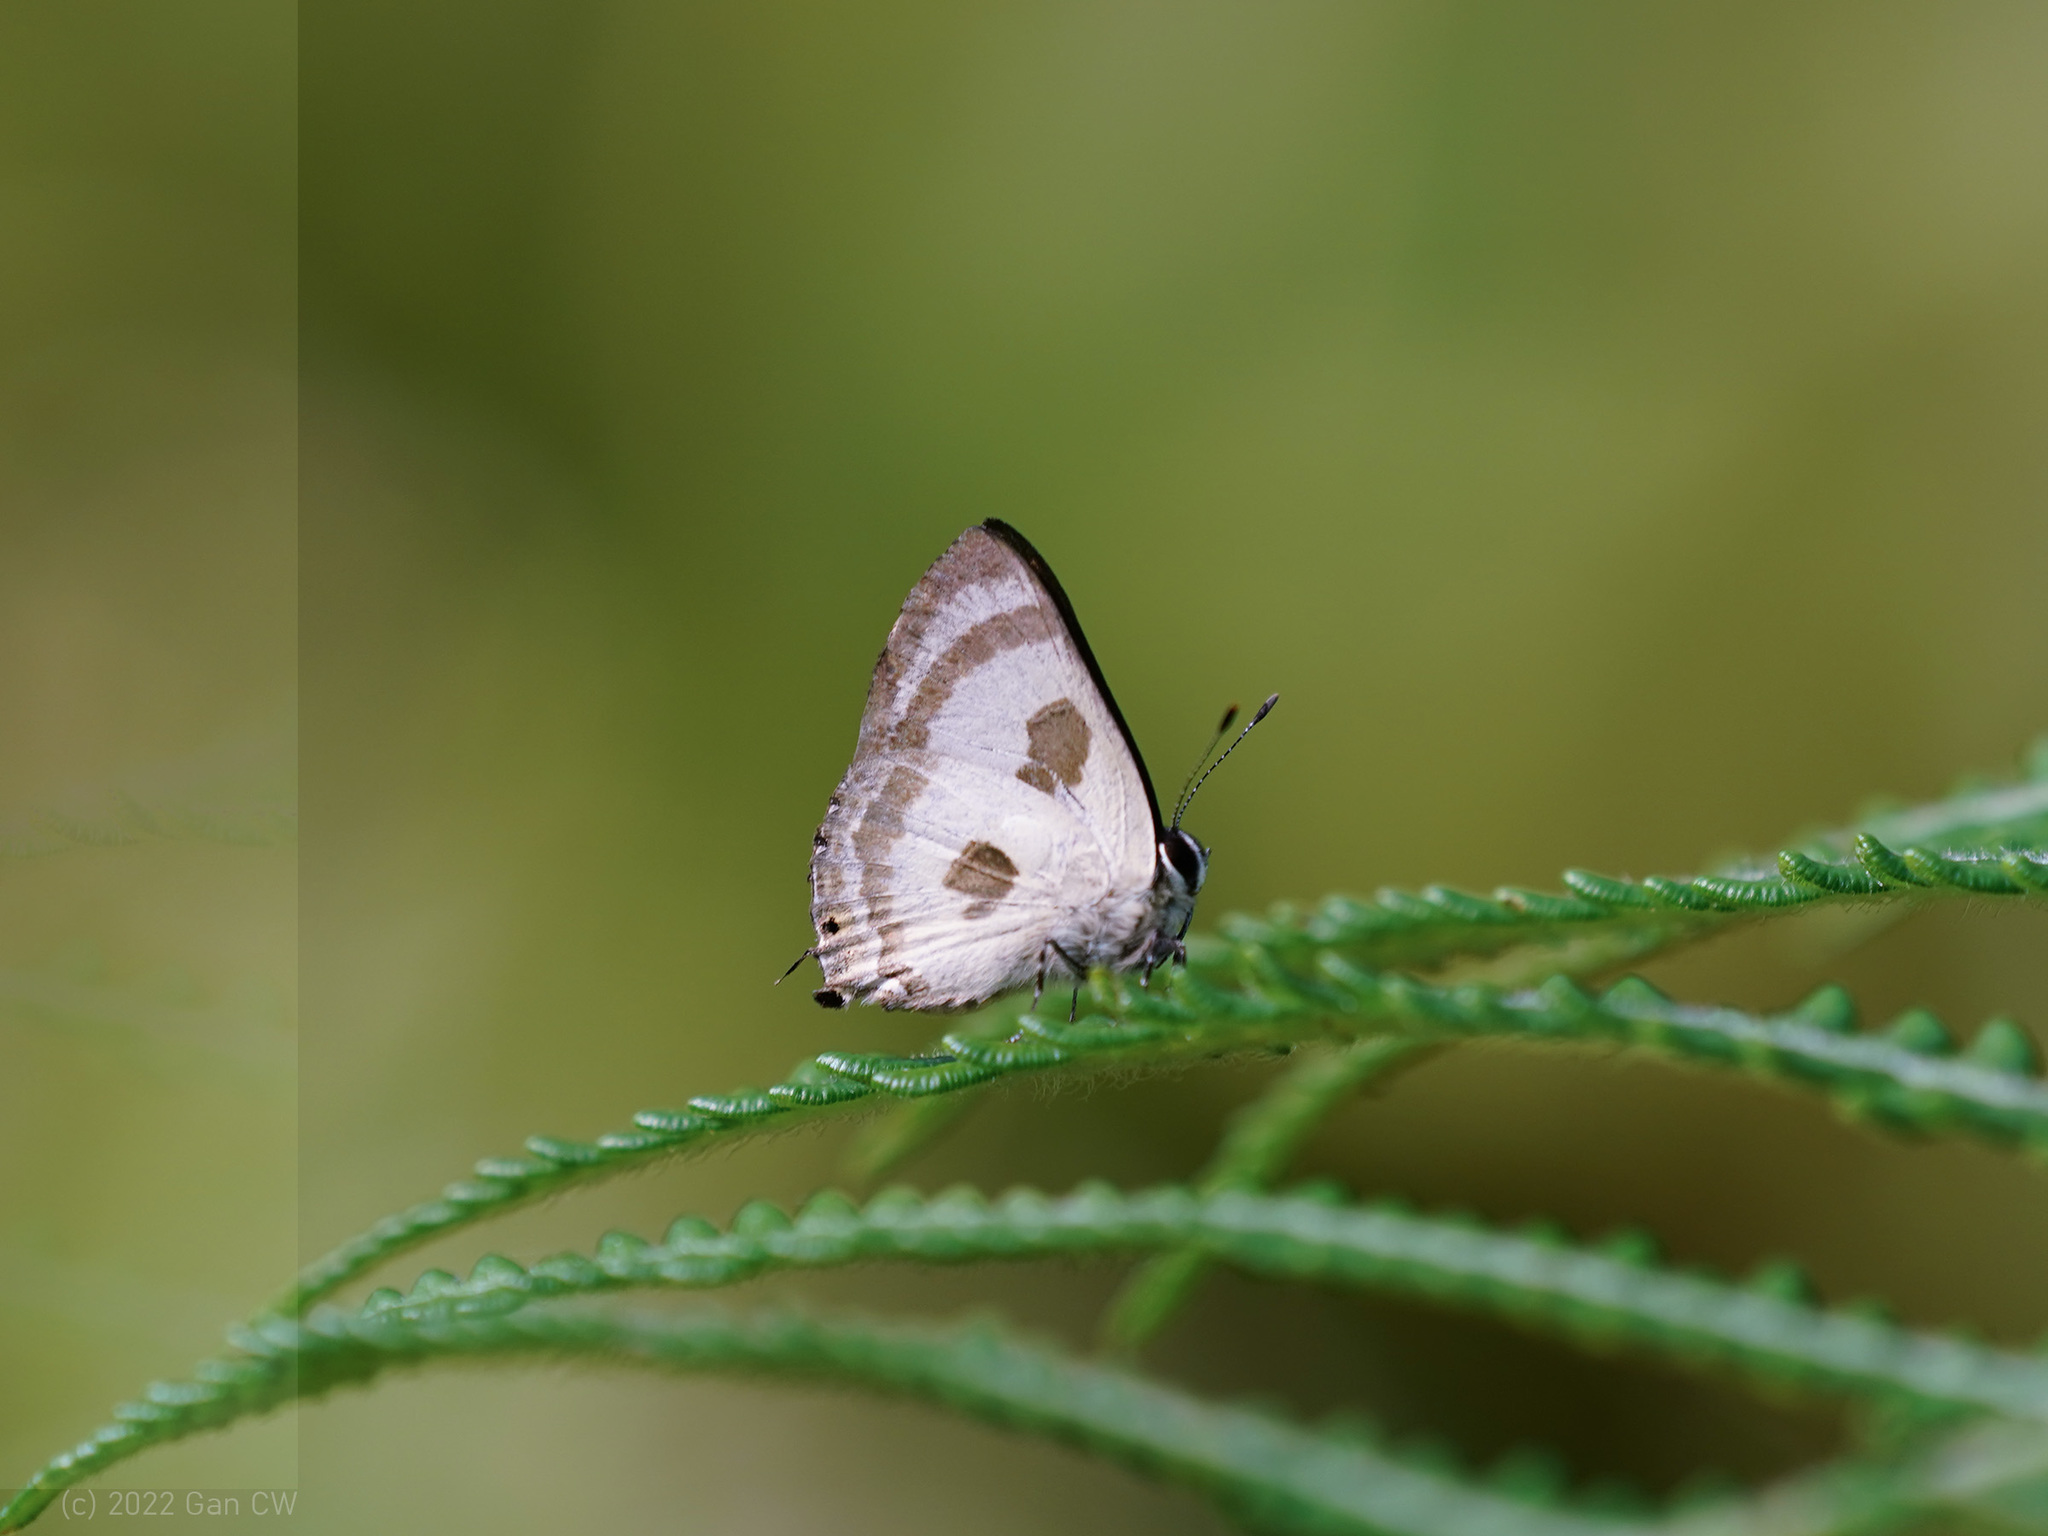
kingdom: Animalia
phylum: Arthropoda
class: Insecta
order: Lepidoptera
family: Lycaenidae
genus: Rapala
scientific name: Rapala
